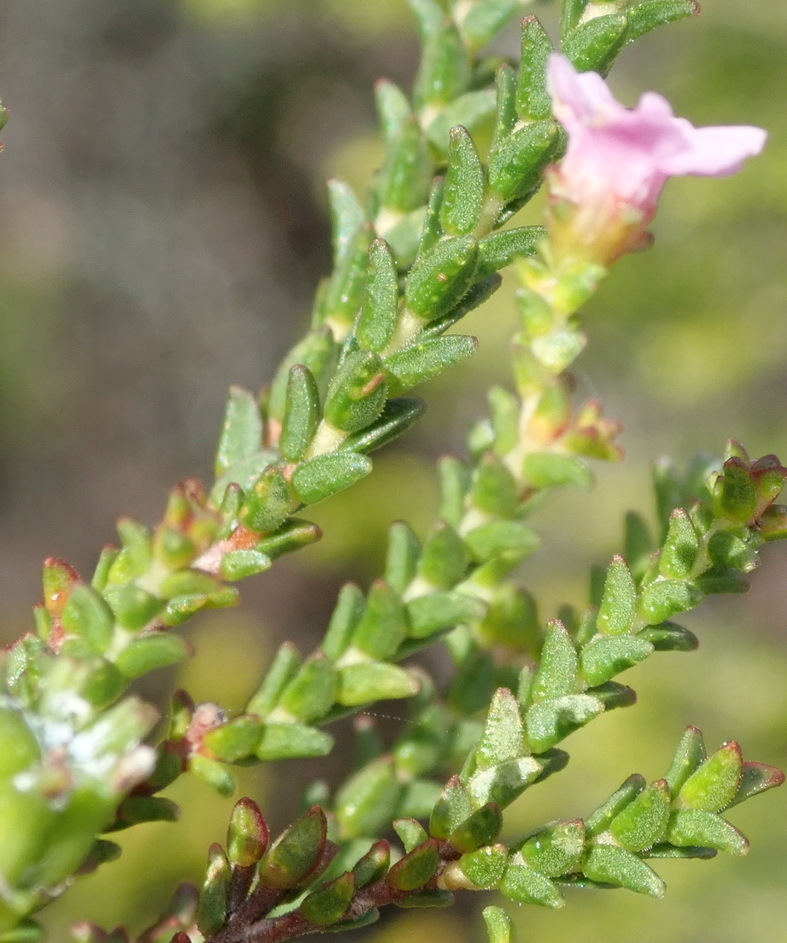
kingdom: Plantae
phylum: Tracheophyta
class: Magnoliopsida
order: Sapindales
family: Rutaceae
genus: Euchaetis
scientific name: Euchaetis albertiniana
